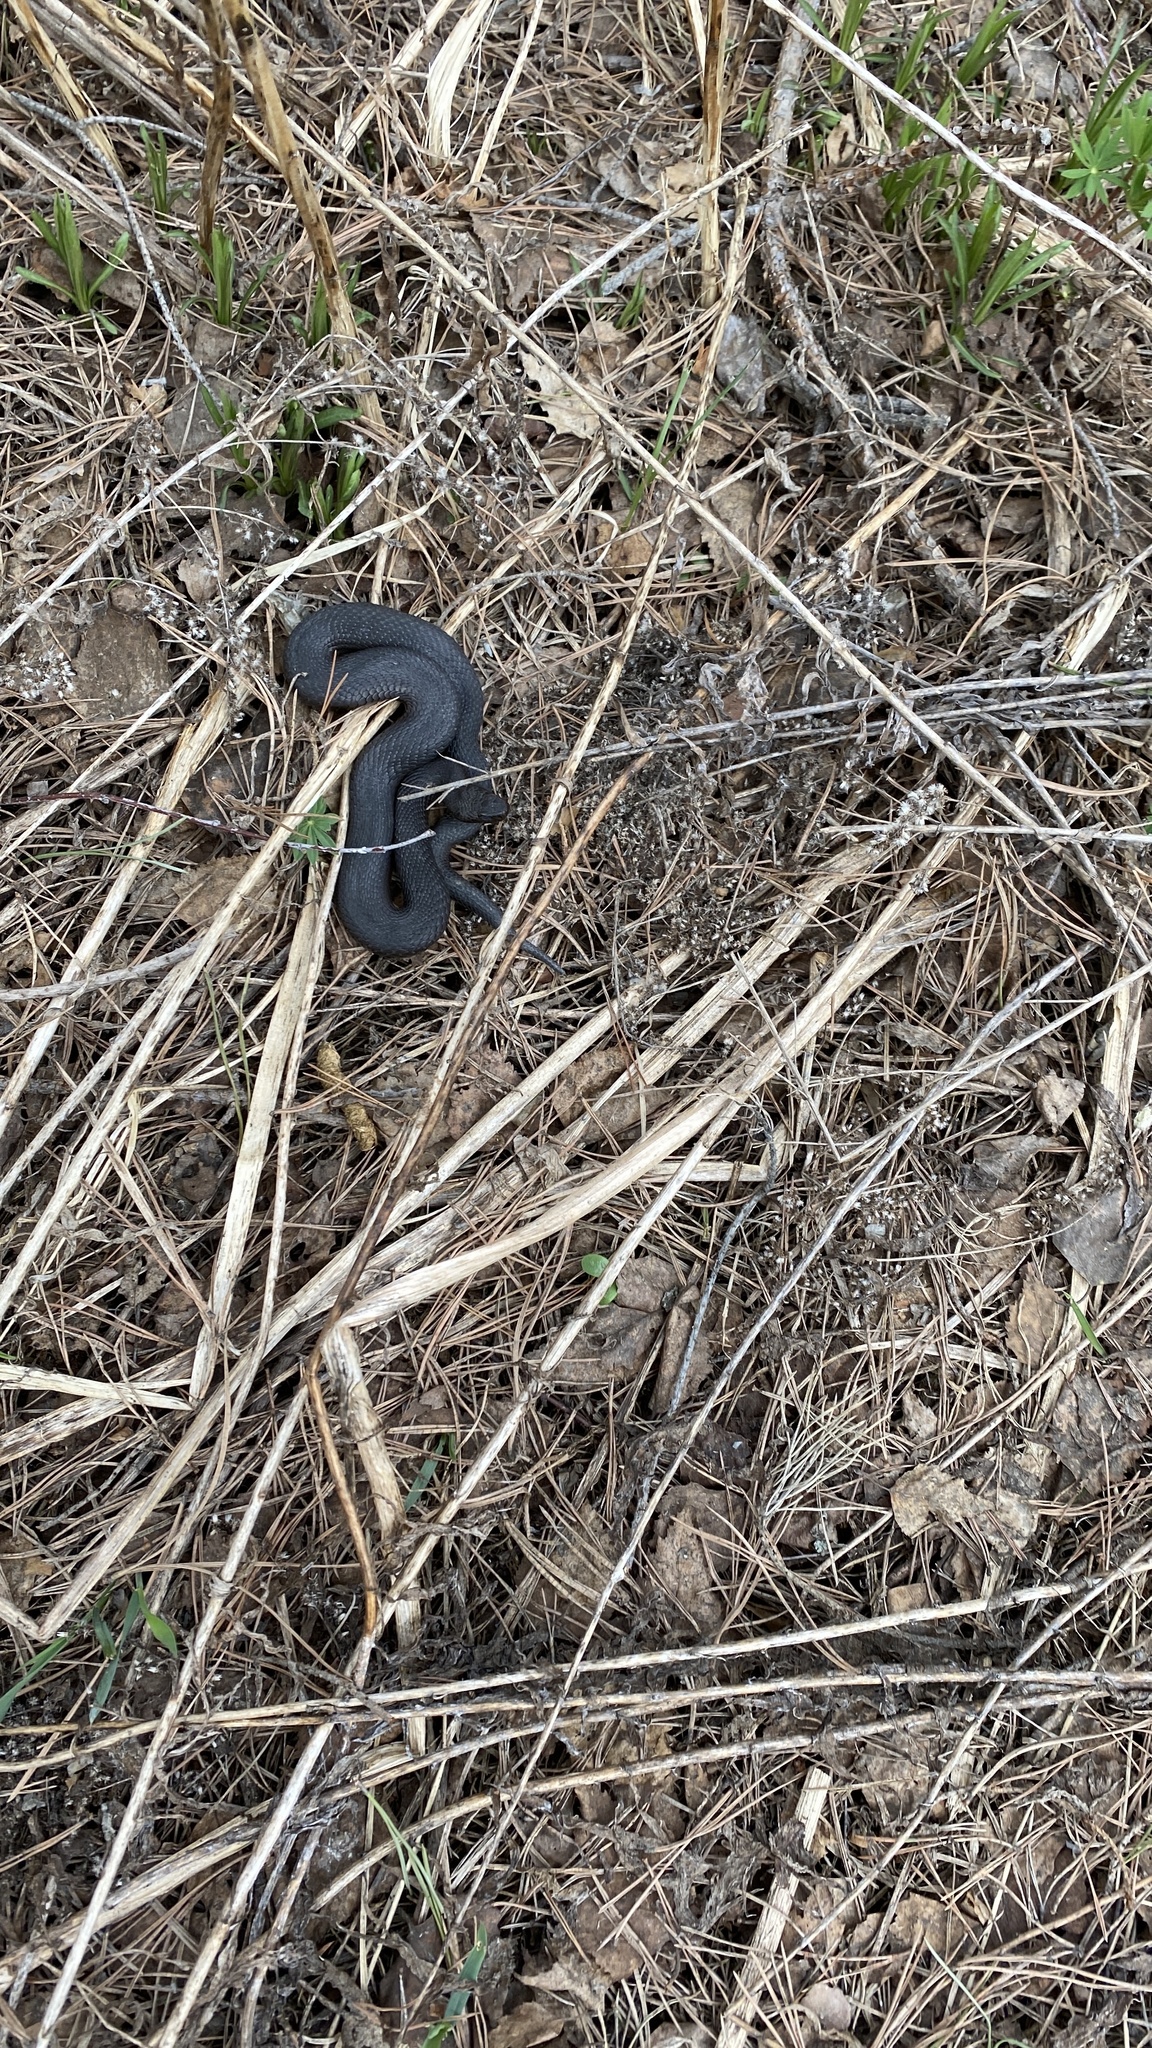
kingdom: Animalia
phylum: Chordata
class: Squamata
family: Viperidae
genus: Vipera
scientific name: Vipera berus
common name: Adder
